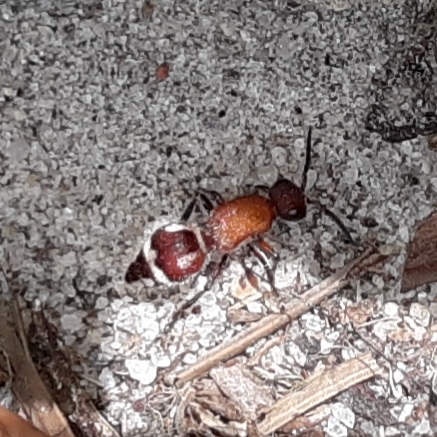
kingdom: Animalia
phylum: Arthropoda
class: Insecta
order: Hymenoptera
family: Mutillidae
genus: Timulla
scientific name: Timulla
